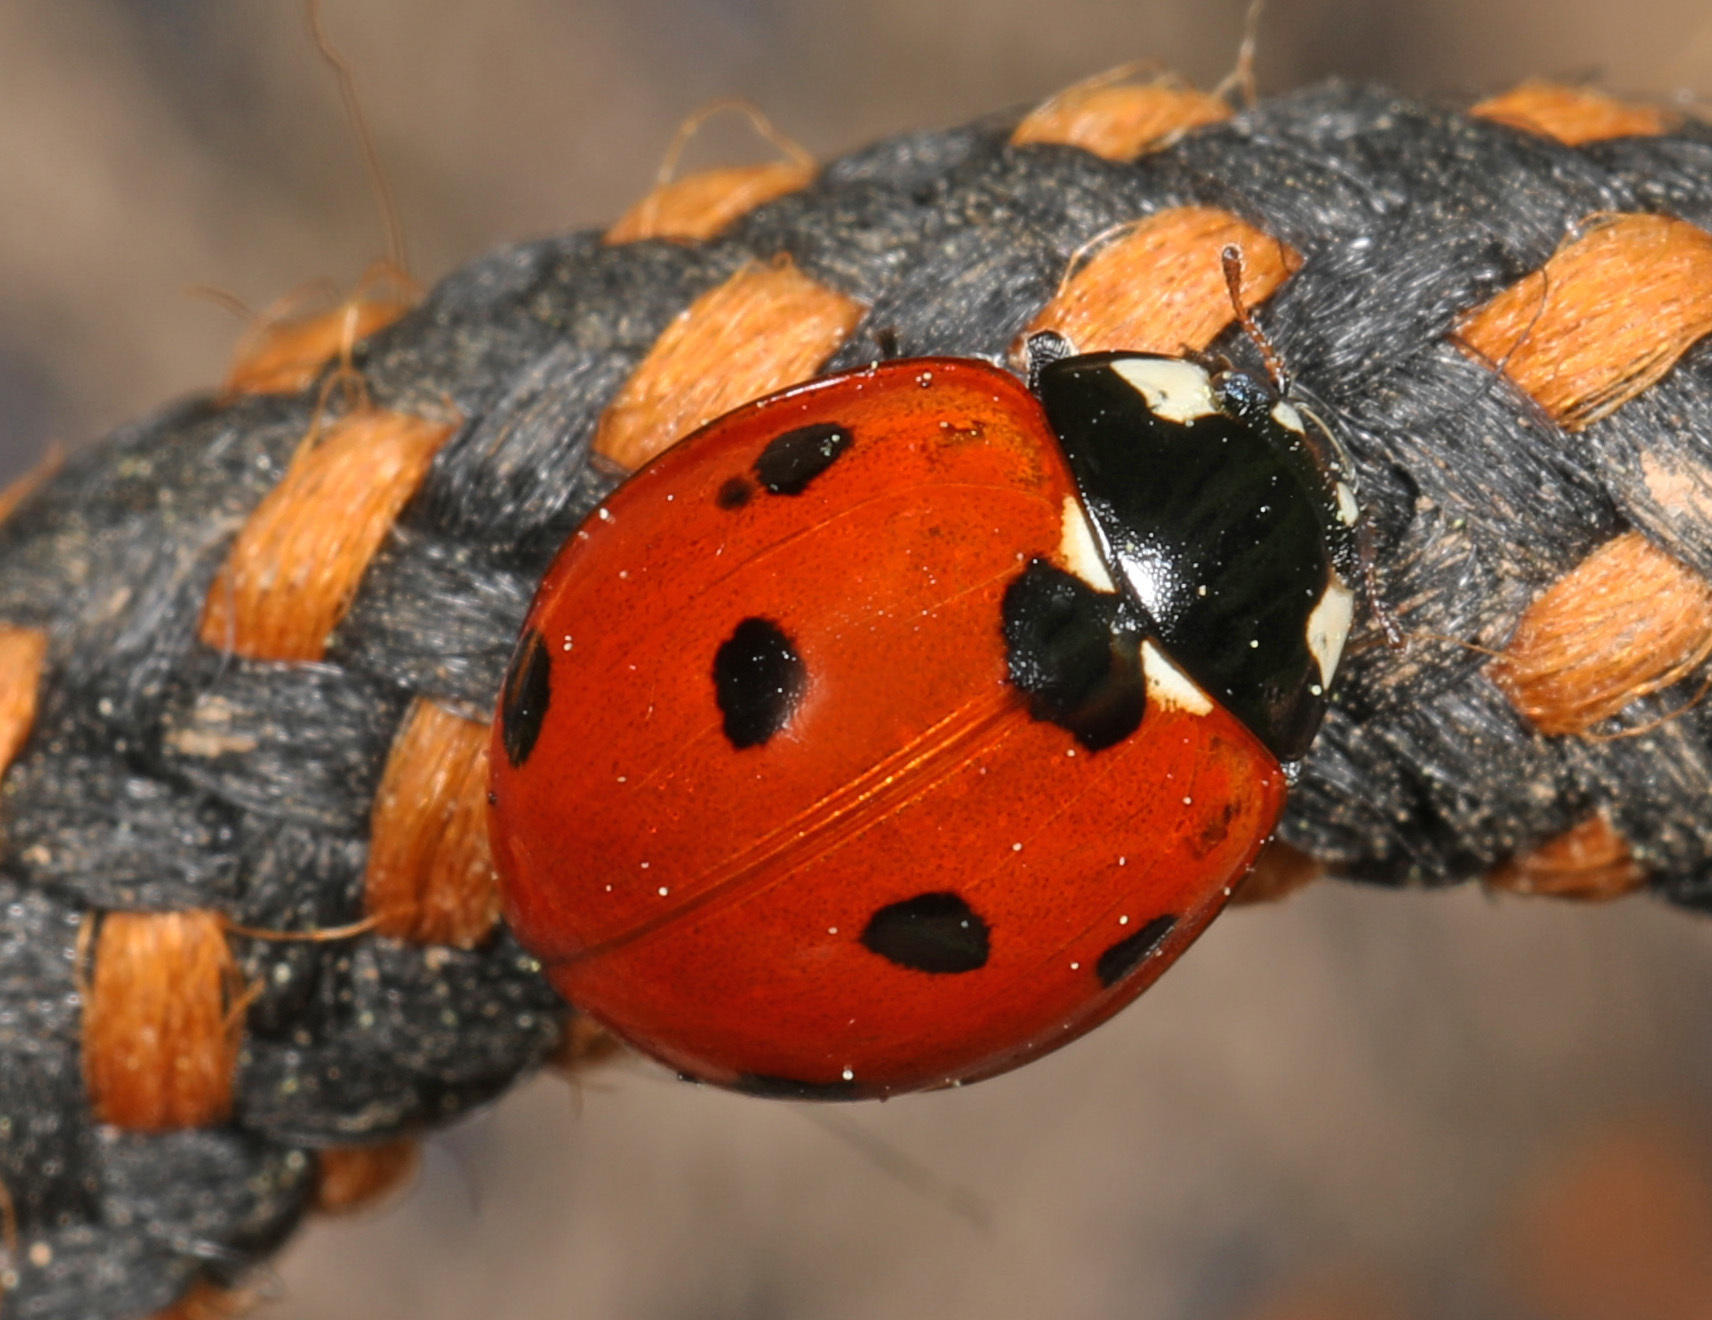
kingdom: Animalia
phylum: Arthropoda
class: Insecta
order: Coleoptera
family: Coccinellidae
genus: Coccinella
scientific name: Coccinella septempunctata
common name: Sevenspotted lady beetle
